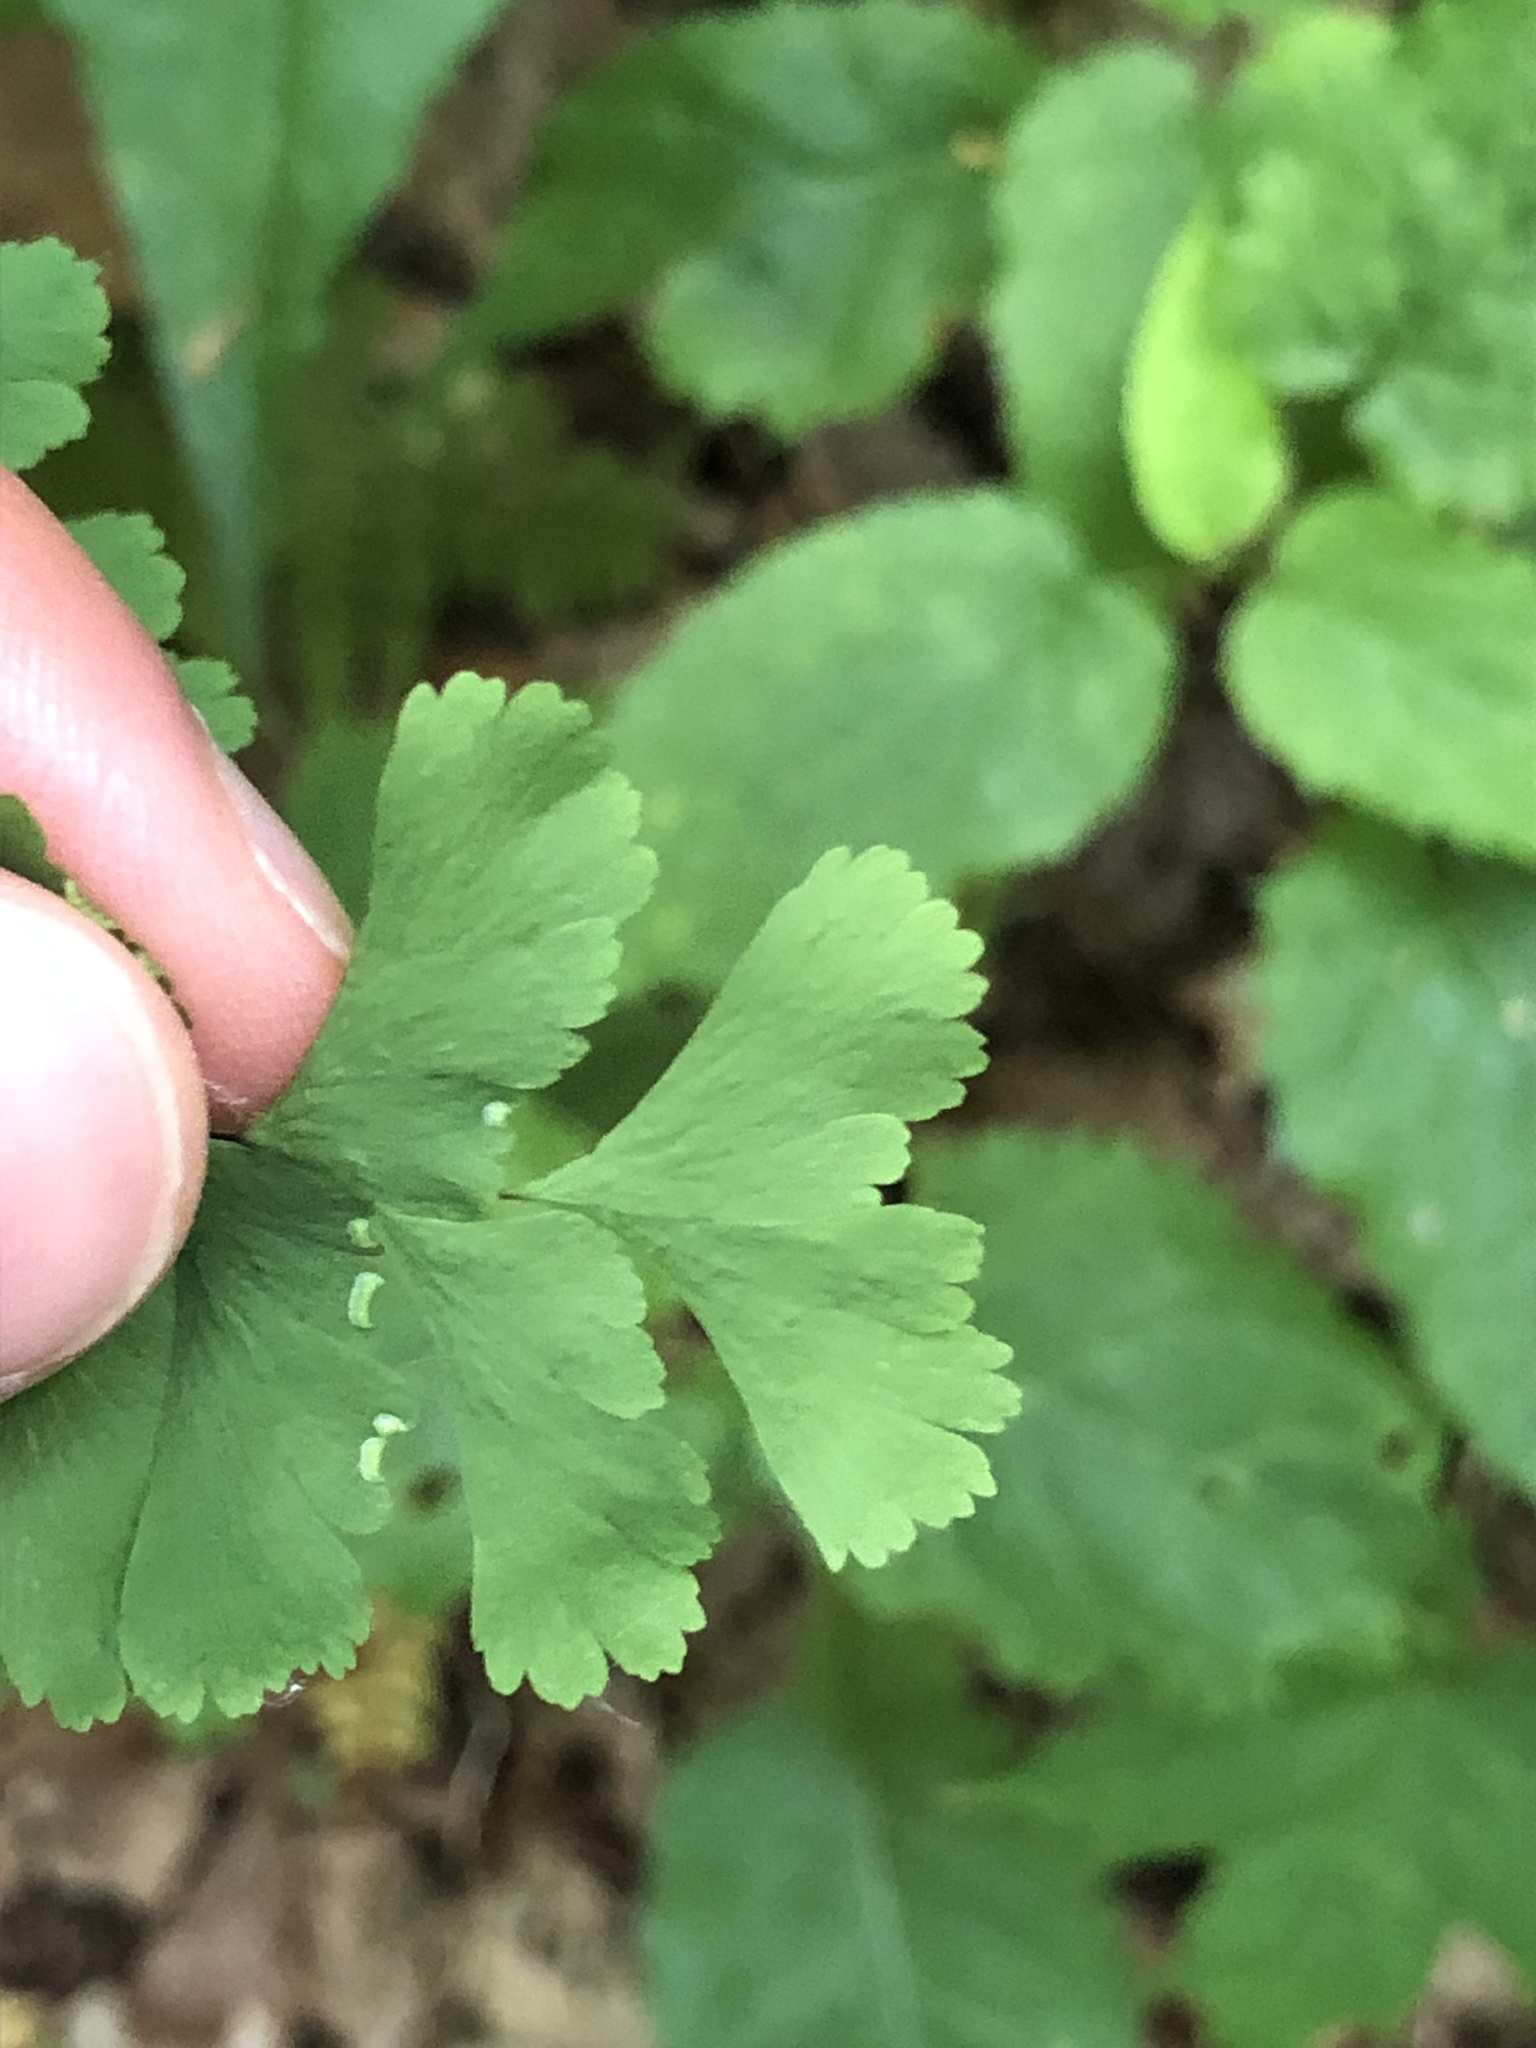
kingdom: Plantae
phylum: Tracheophyta
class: Polypodiopsida
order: Polypodiales
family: Pteridaceae
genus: Adiantum
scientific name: Adiantum pedatum
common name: Five-finger fern
